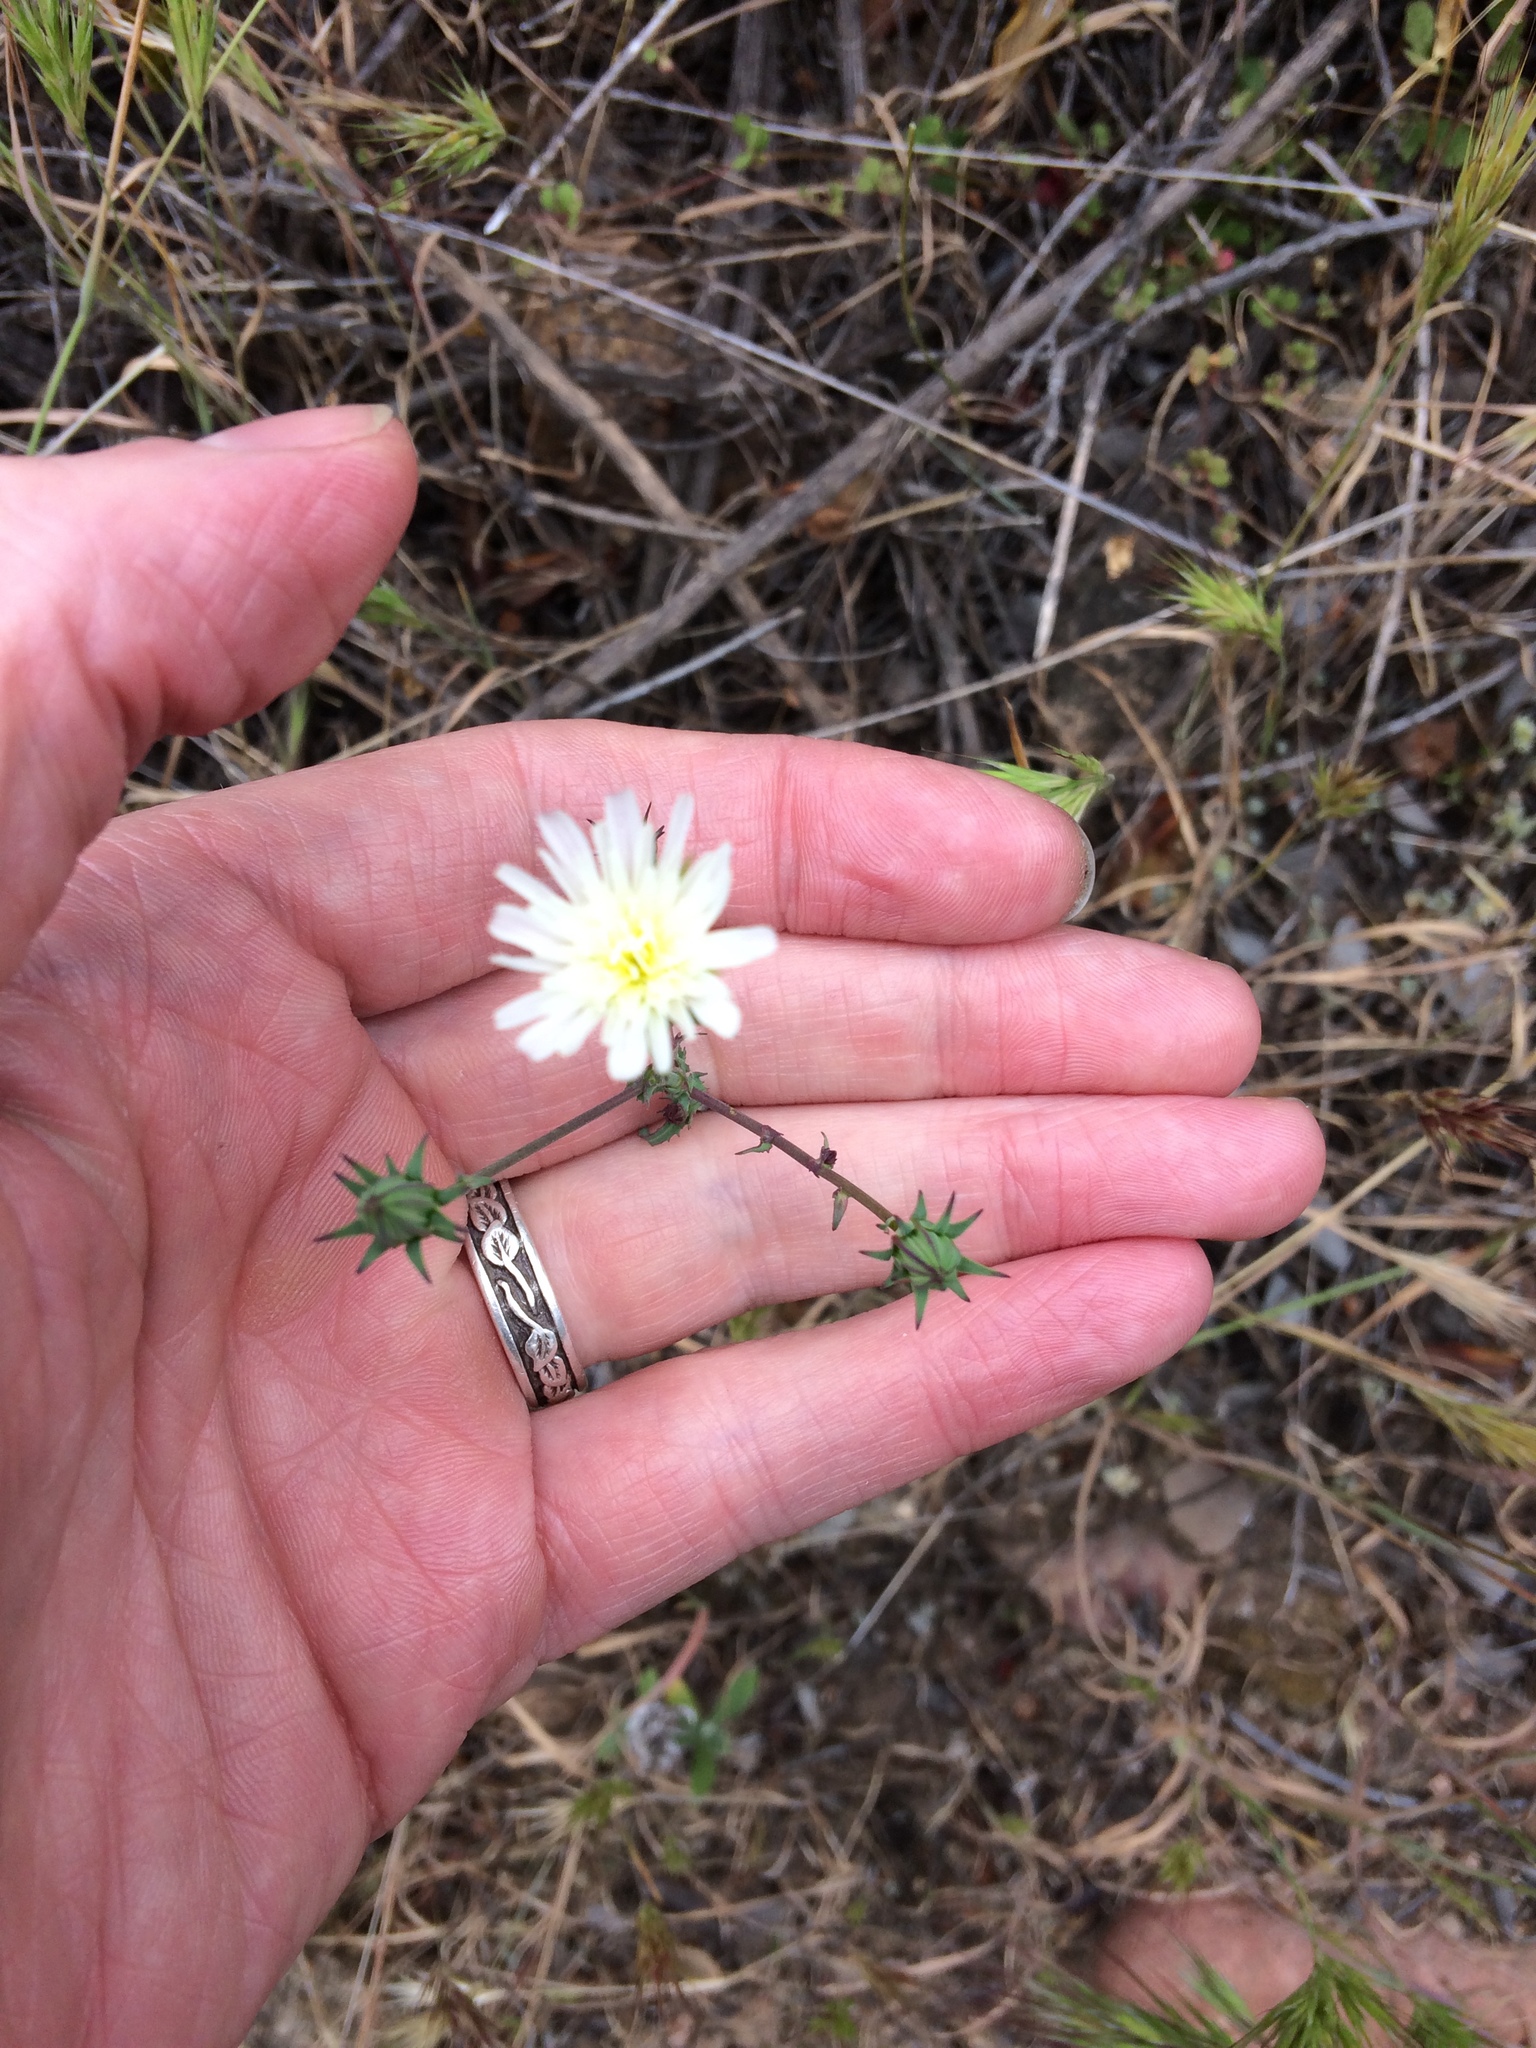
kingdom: Plantae
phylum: Tracheophyta
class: Magnoliopsida
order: Asterales
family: Asteraceae
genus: Rafinesquia
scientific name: Rafinesquia californica
